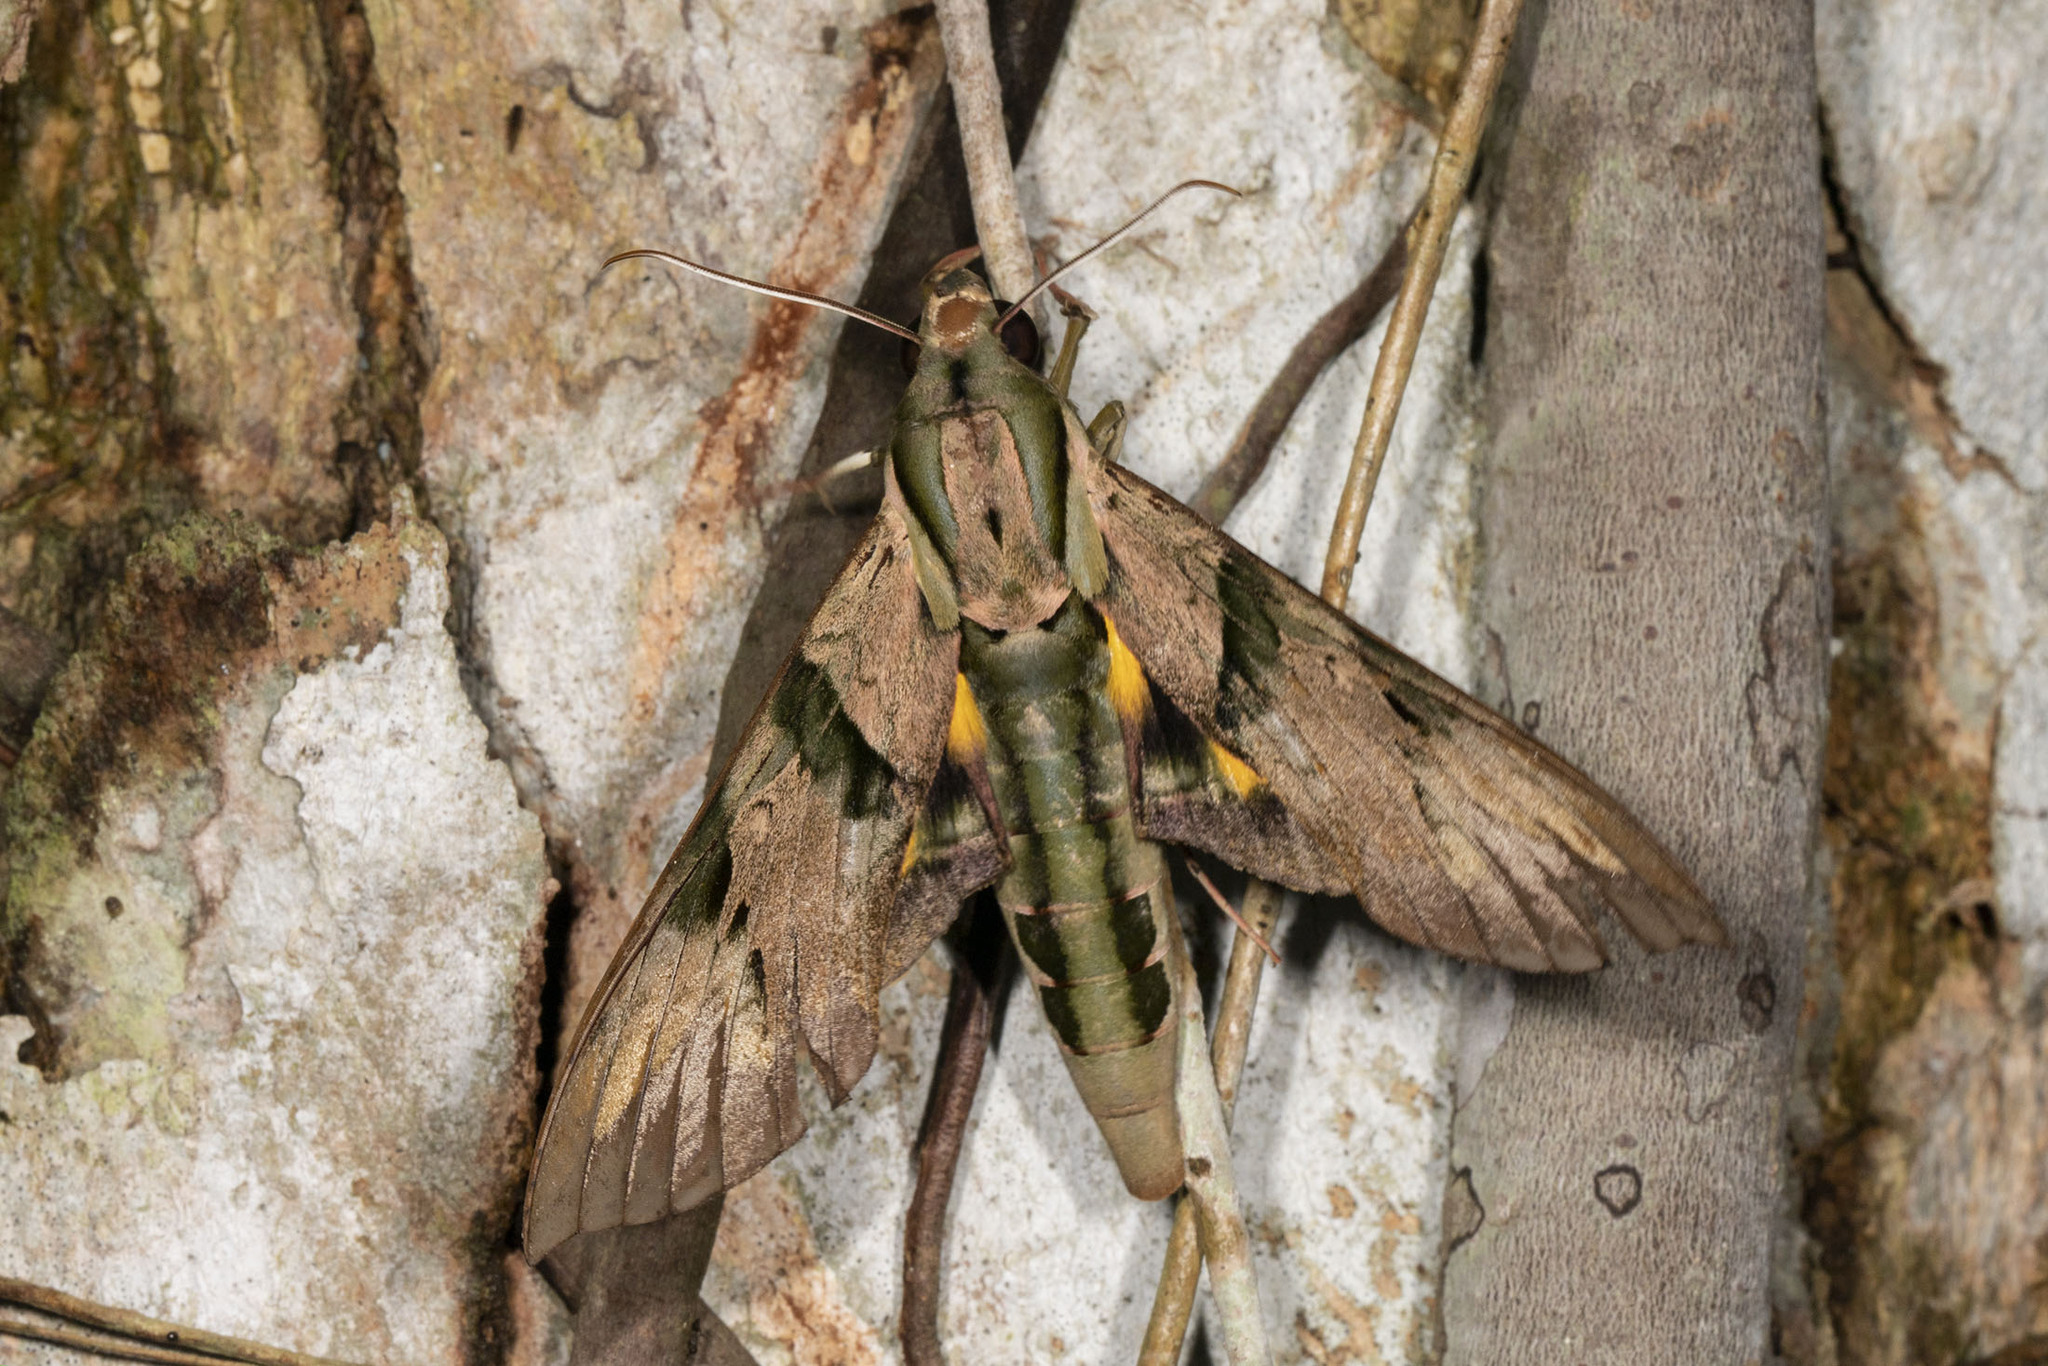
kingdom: Animalia
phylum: Arthropoda
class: Insecta
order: Lepidoptera
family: Sphingidae
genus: Eumorpha
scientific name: Eumorpha capronnieri
